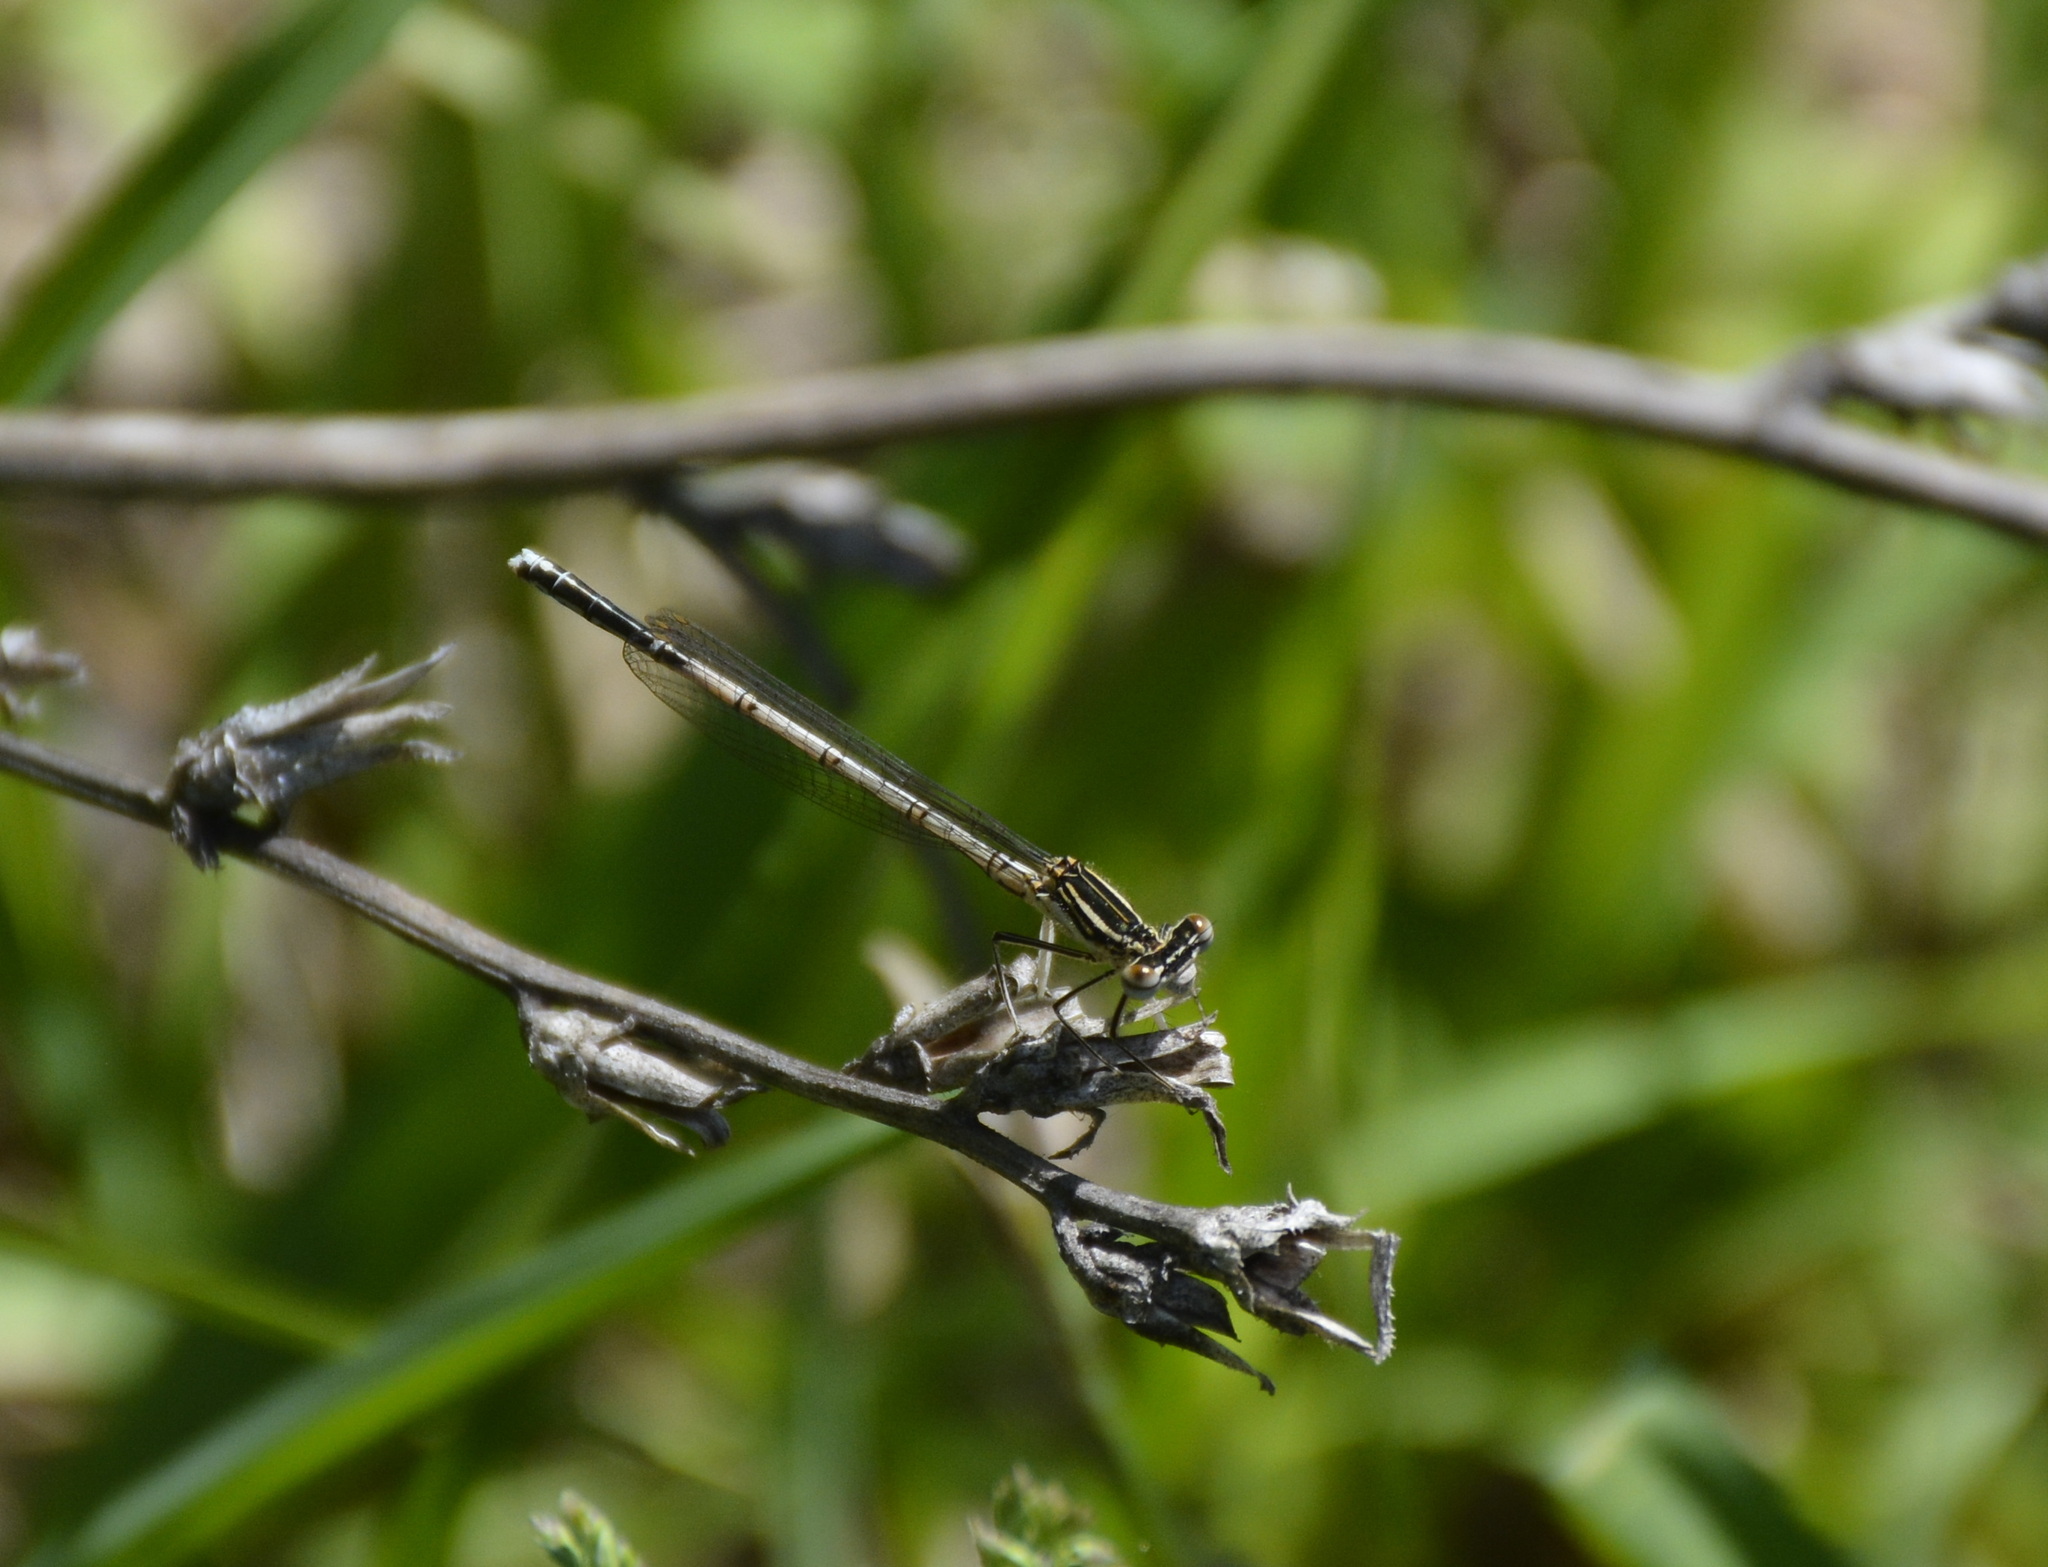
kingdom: Animalia
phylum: Arthropoda
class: Insecta
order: Odonata
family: Platycnemididae
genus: Platycnemis
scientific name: Platycnemis pennipes
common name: White-legged damselfly
